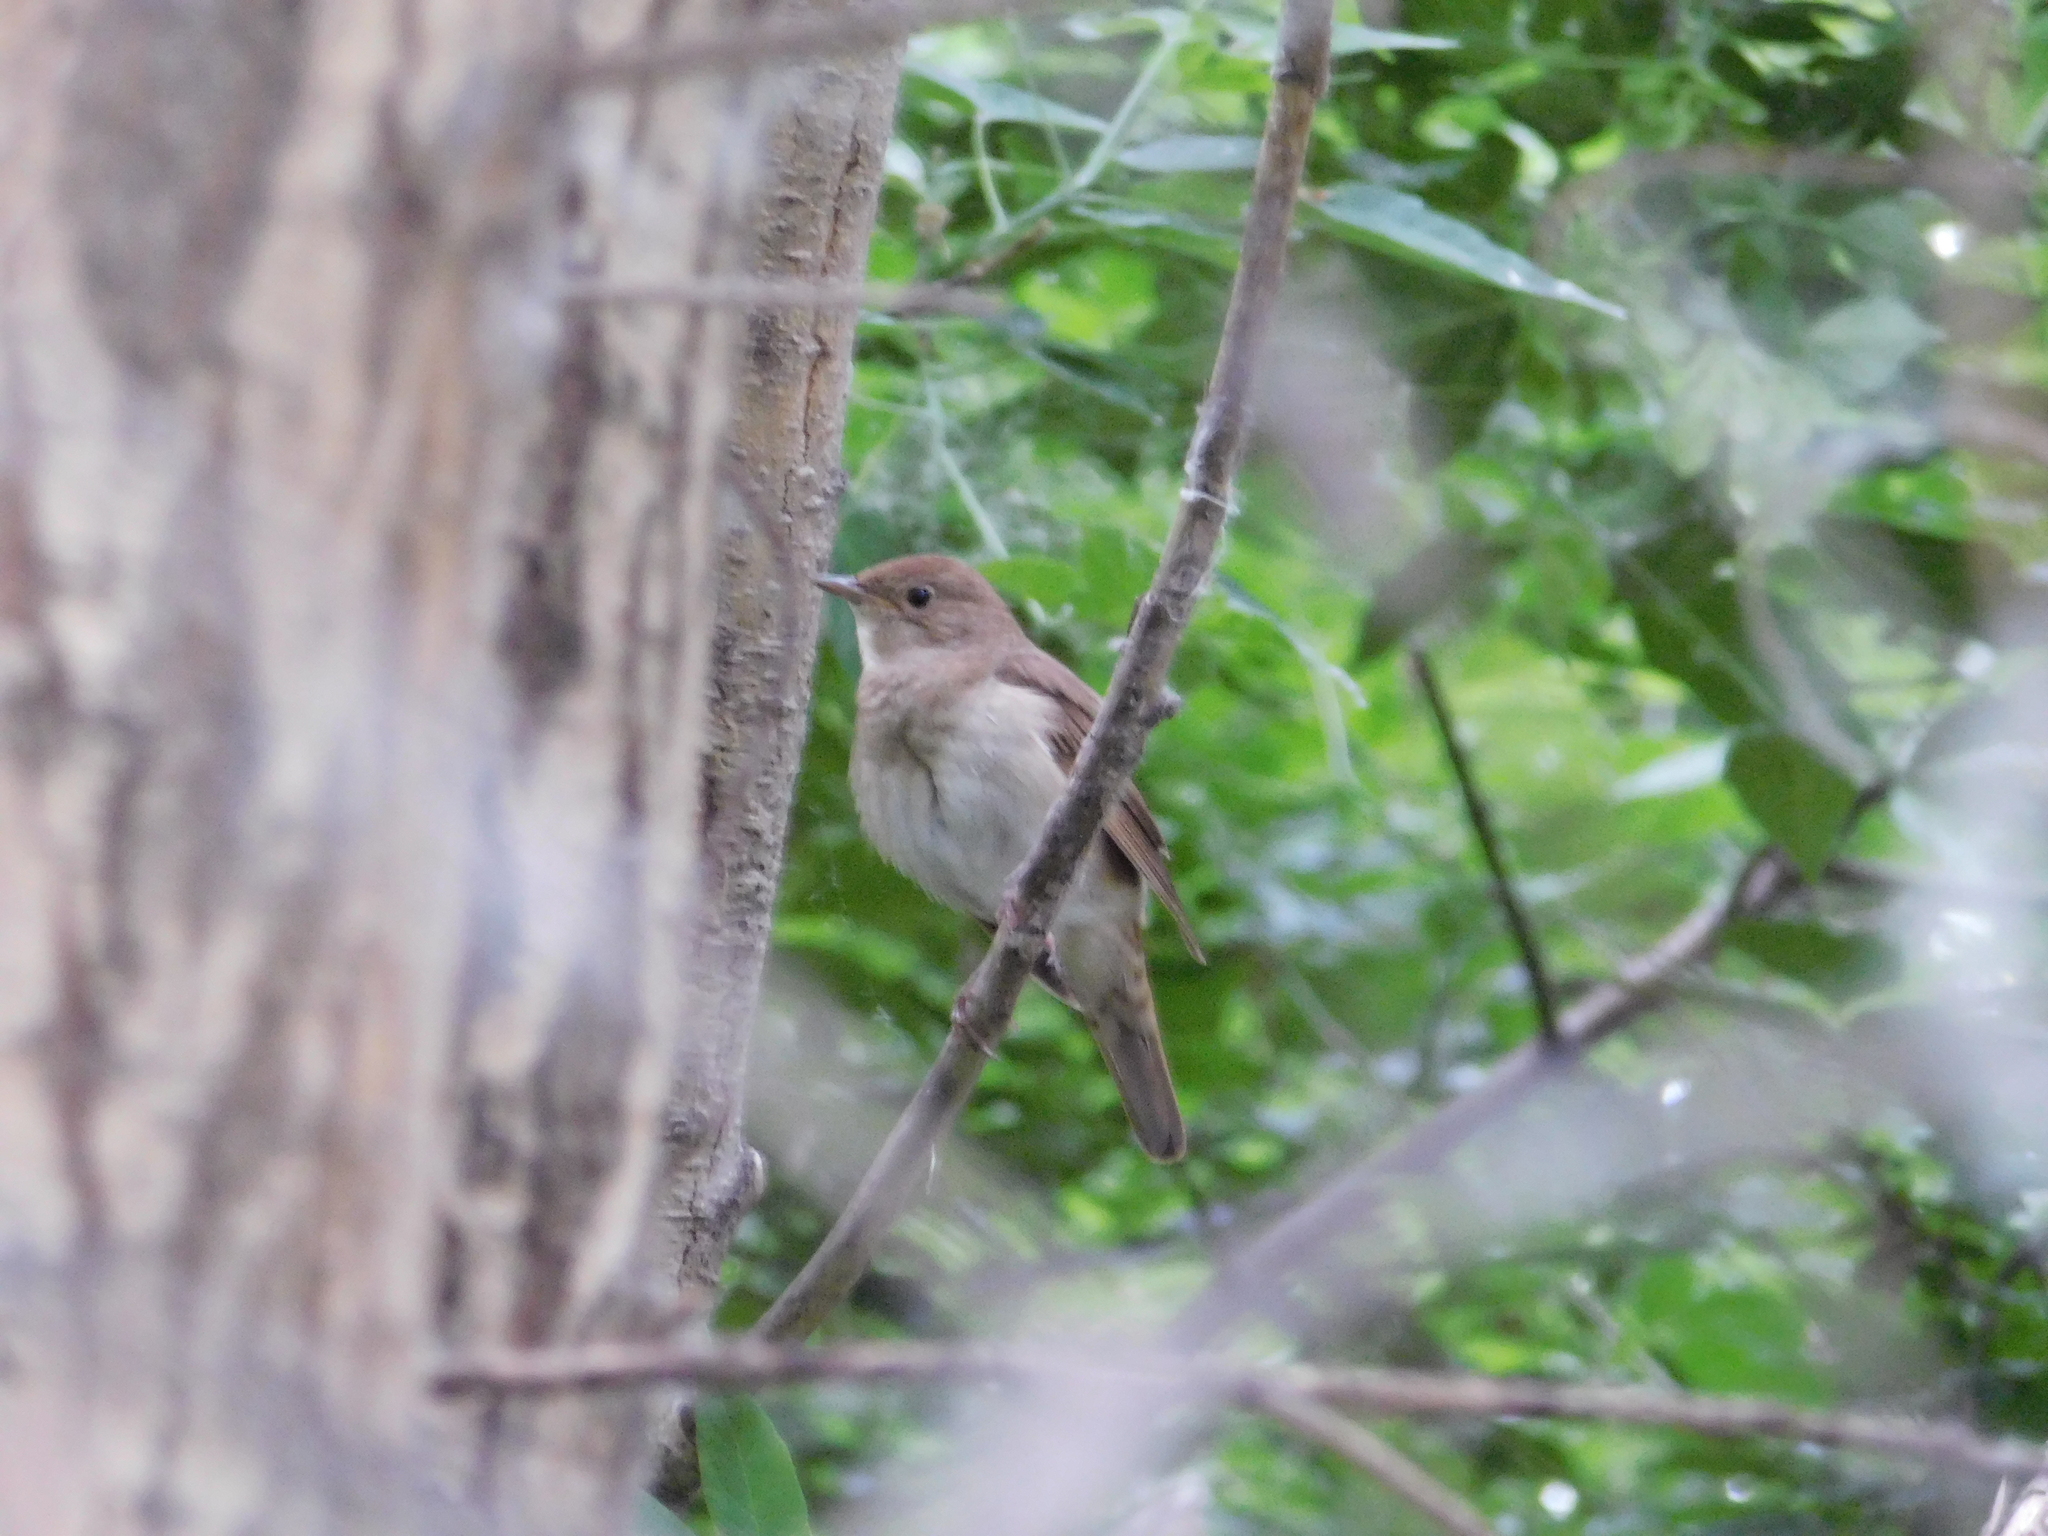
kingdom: Animalia
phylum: Chordata
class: Aves
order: Passeriformes
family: Muscicapidae
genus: Luscinia
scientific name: Luscinia luscinia
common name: Thrush nightingale
